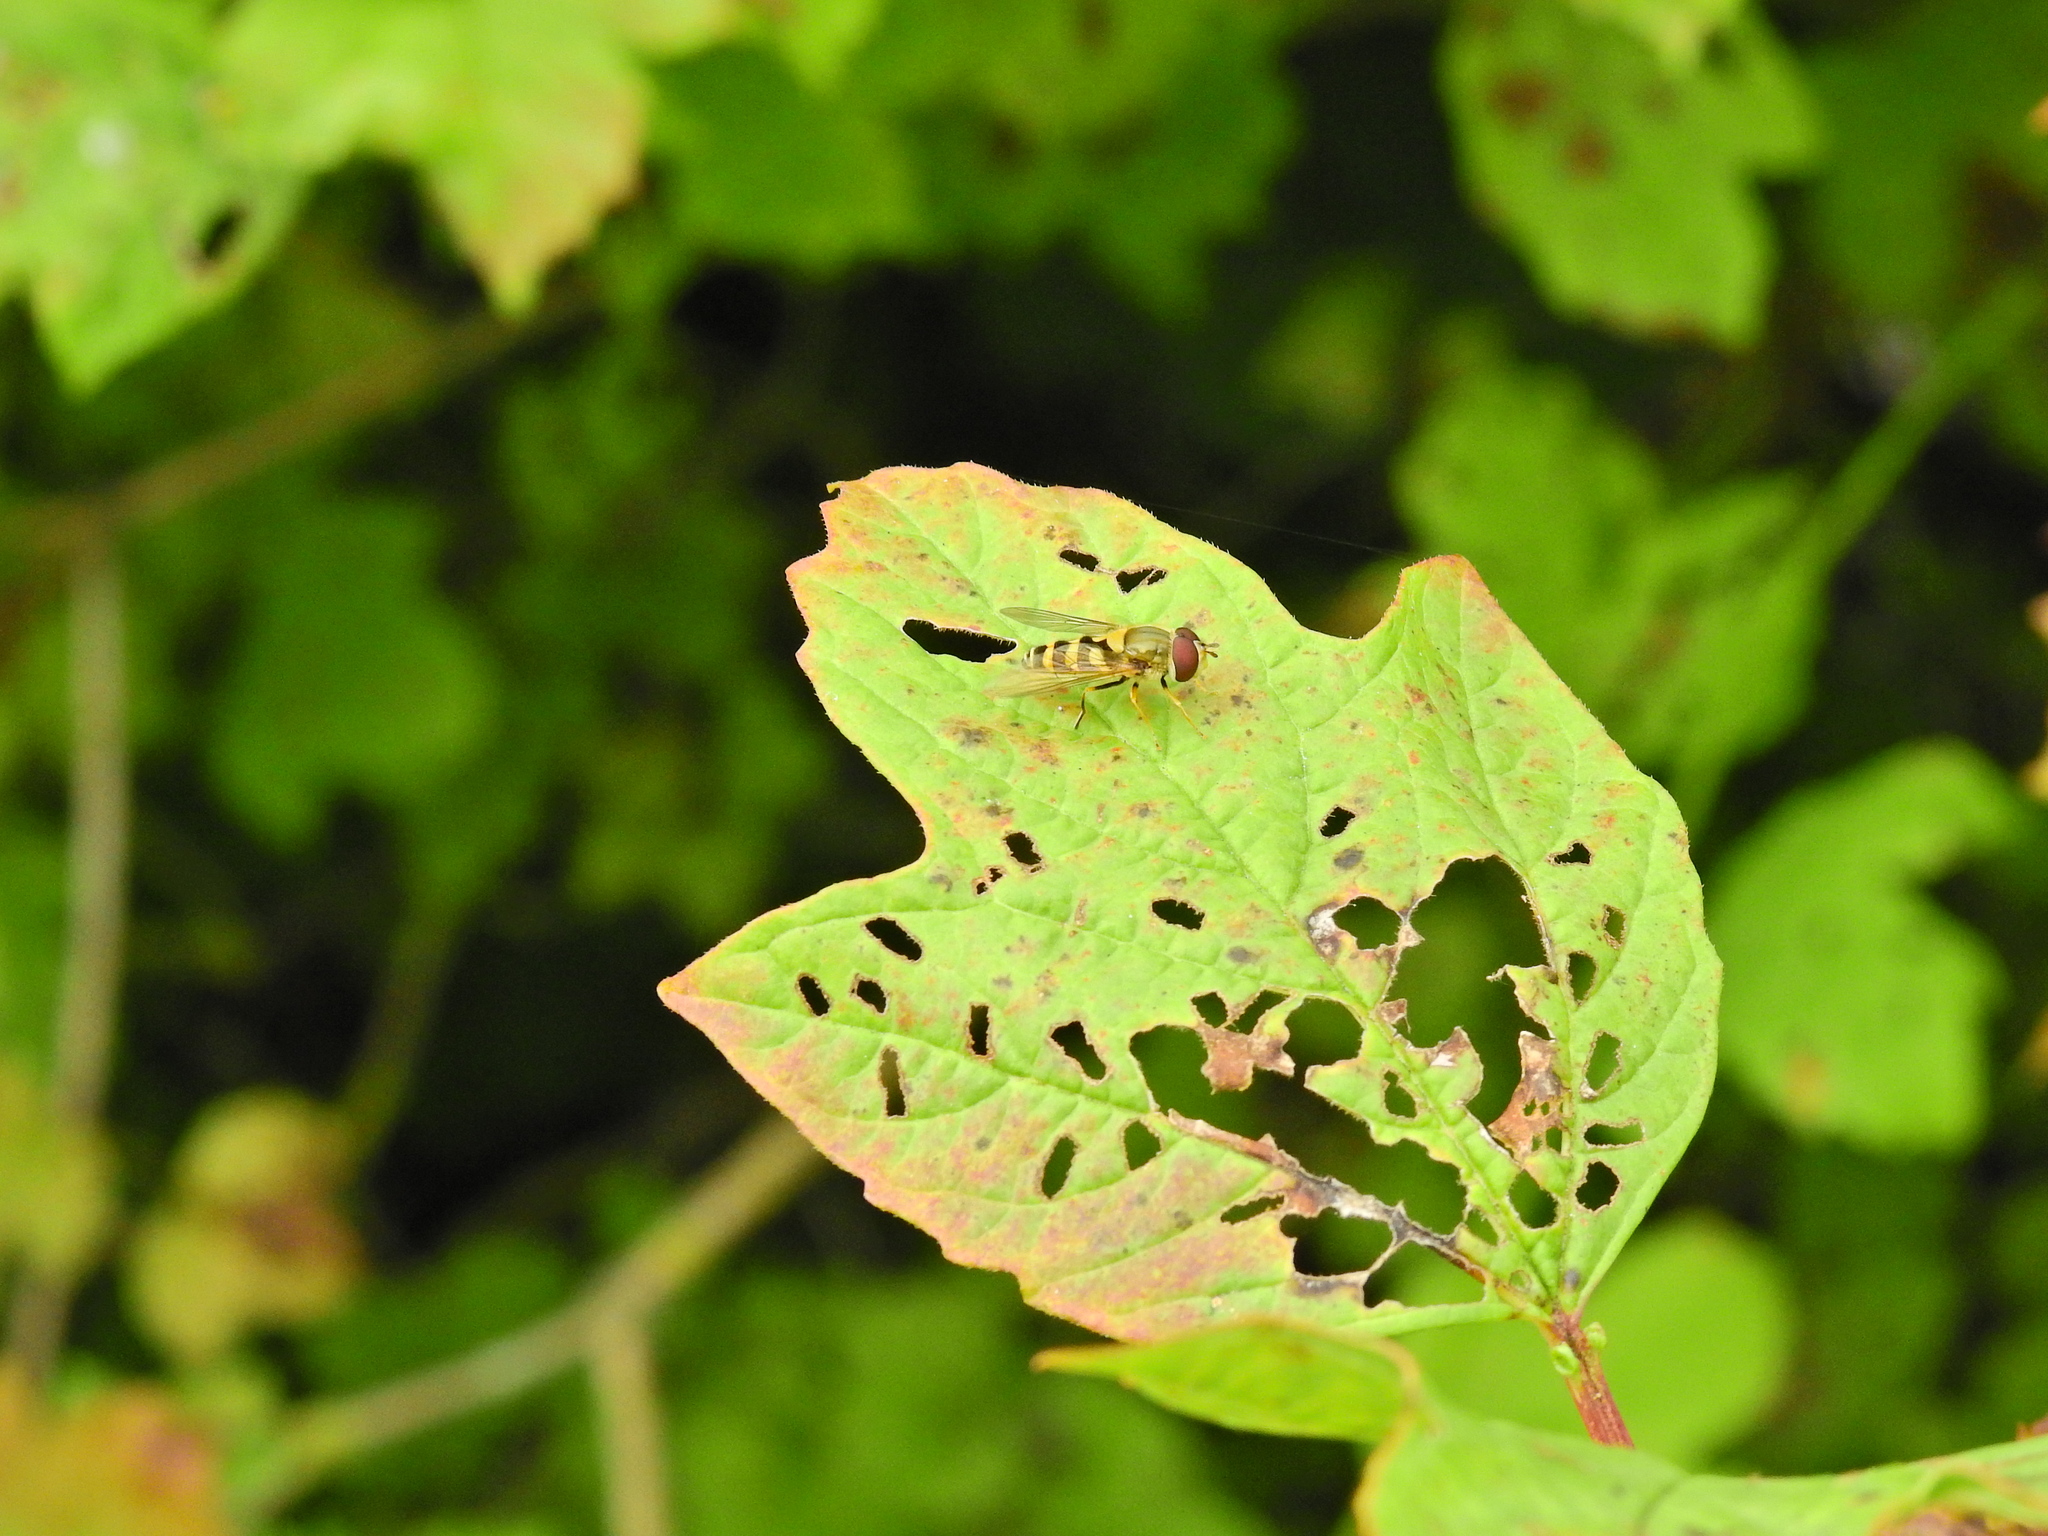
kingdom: Animalia
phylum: Arthropoda
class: Insecta
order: Diptera
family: Syrphidae
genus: Syrphus
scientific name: Syrphus
